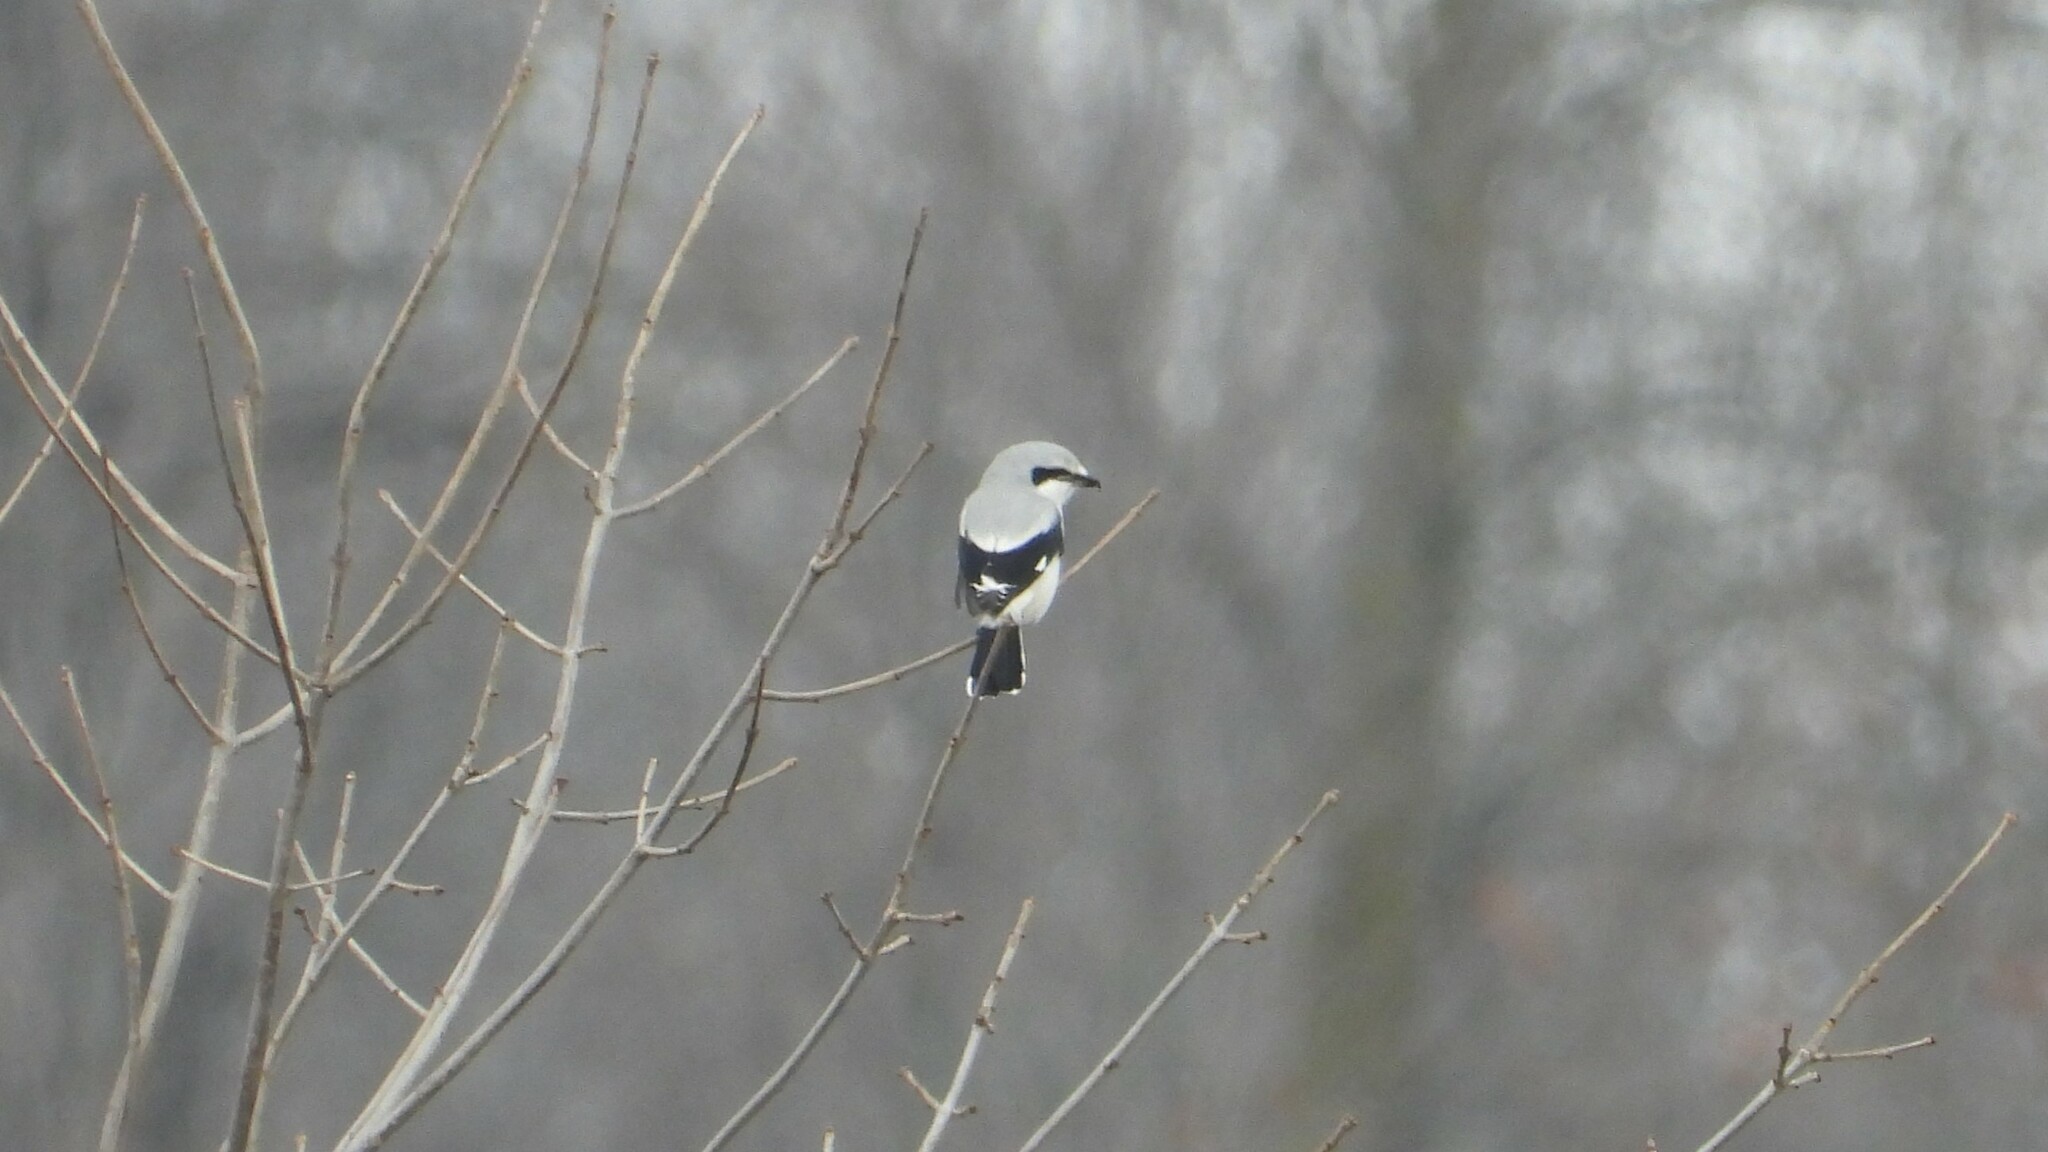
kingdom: Animalia
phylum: Chordata
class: Aves
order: Passeriformes
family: Laniidae
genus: Lanius
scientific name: Lanius borealis
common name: Northern shrike
